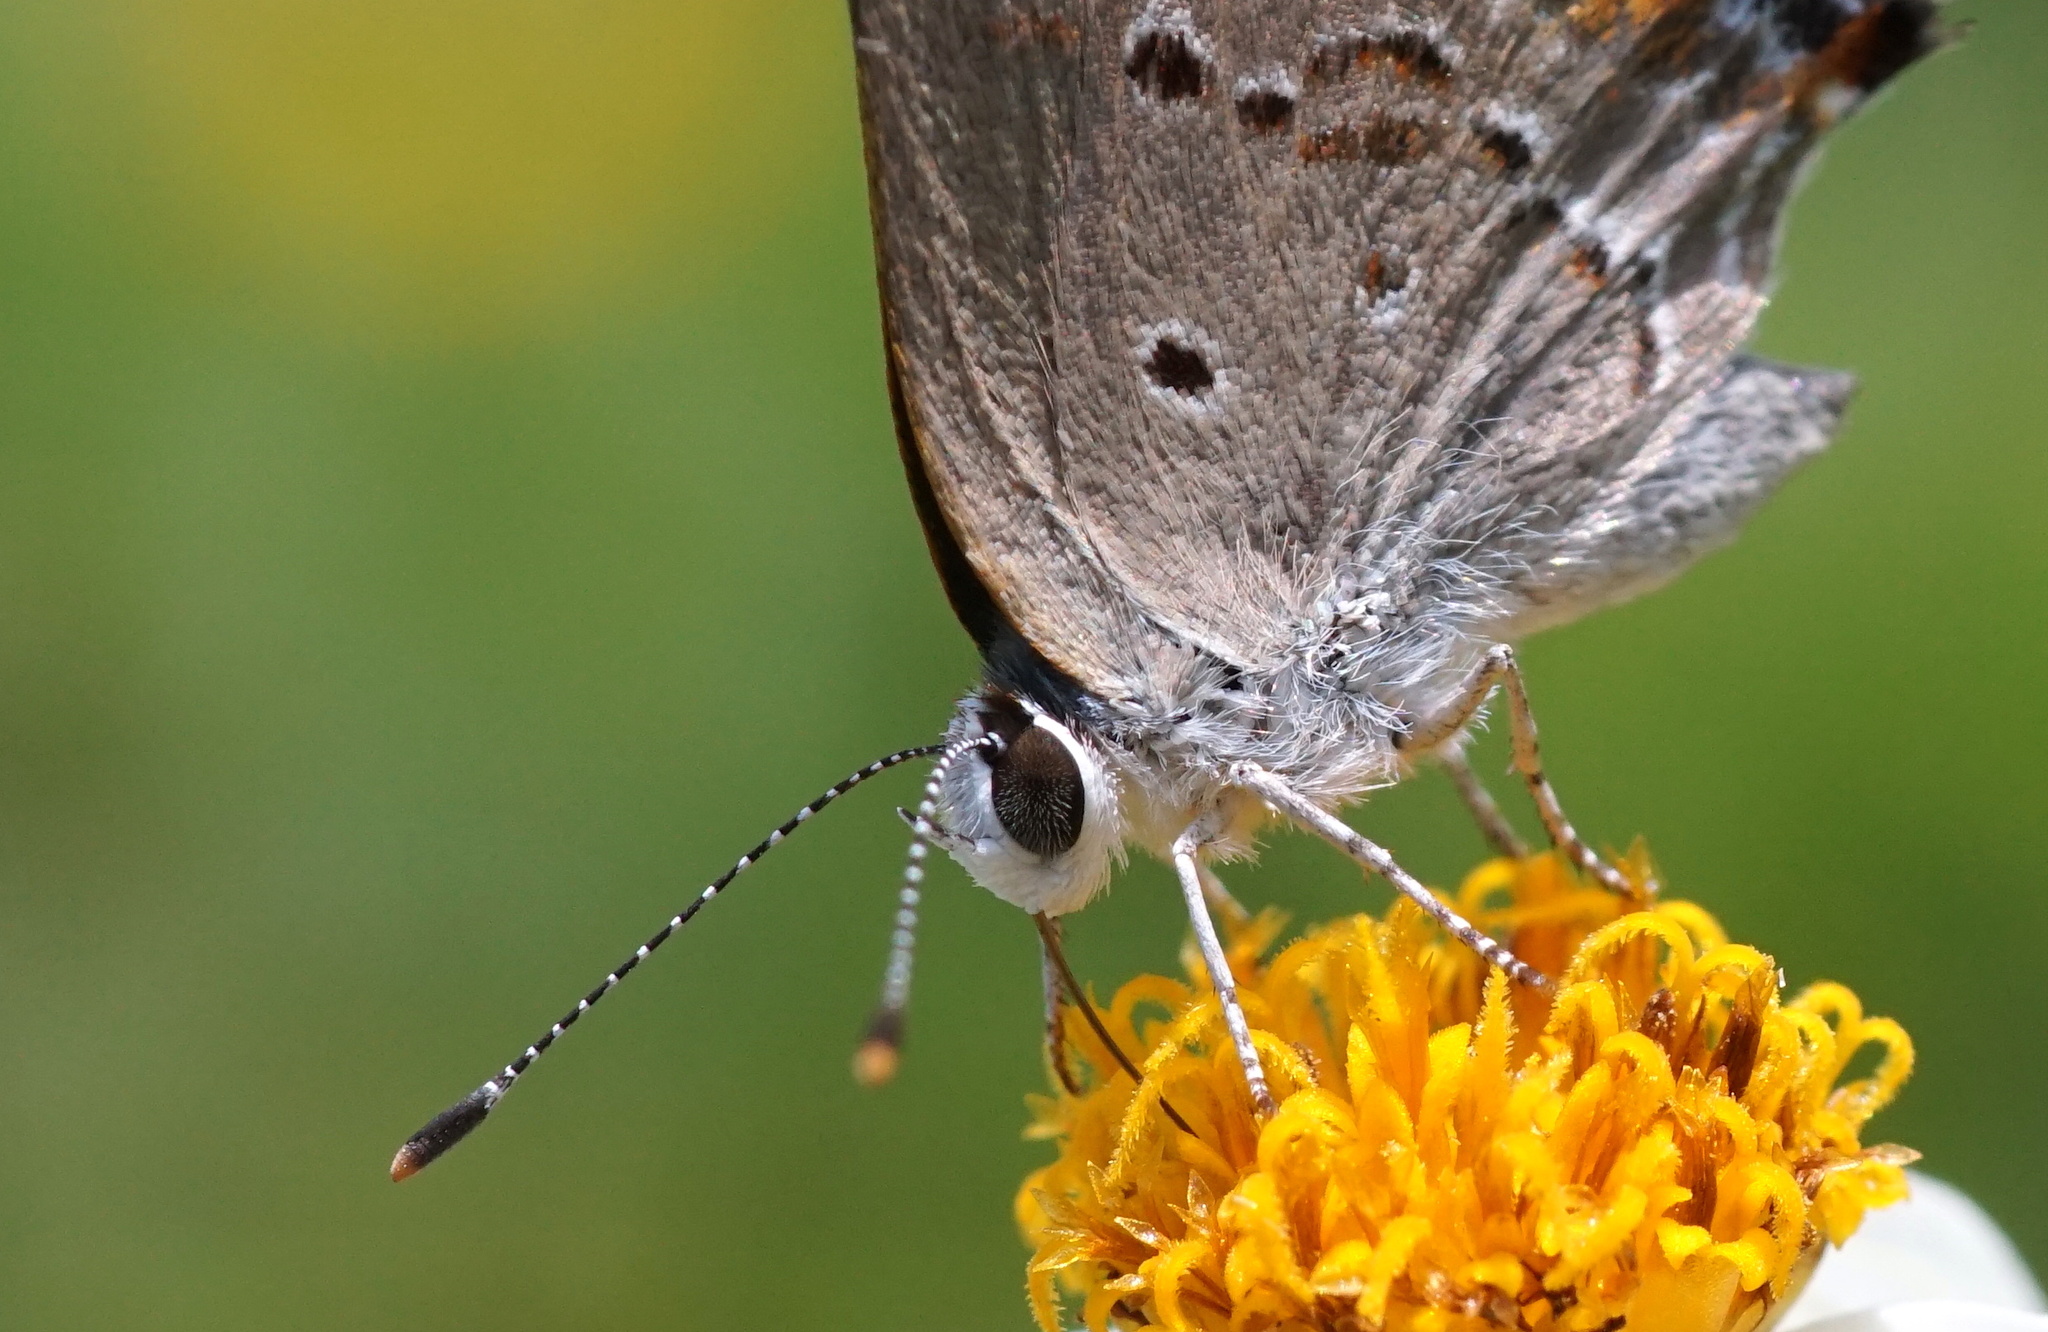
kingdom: Animalia
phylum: Arthropoda
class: Insecta
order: Lepidoptera
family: Lycaenidae
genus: Callicista
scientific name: Callicista columella
